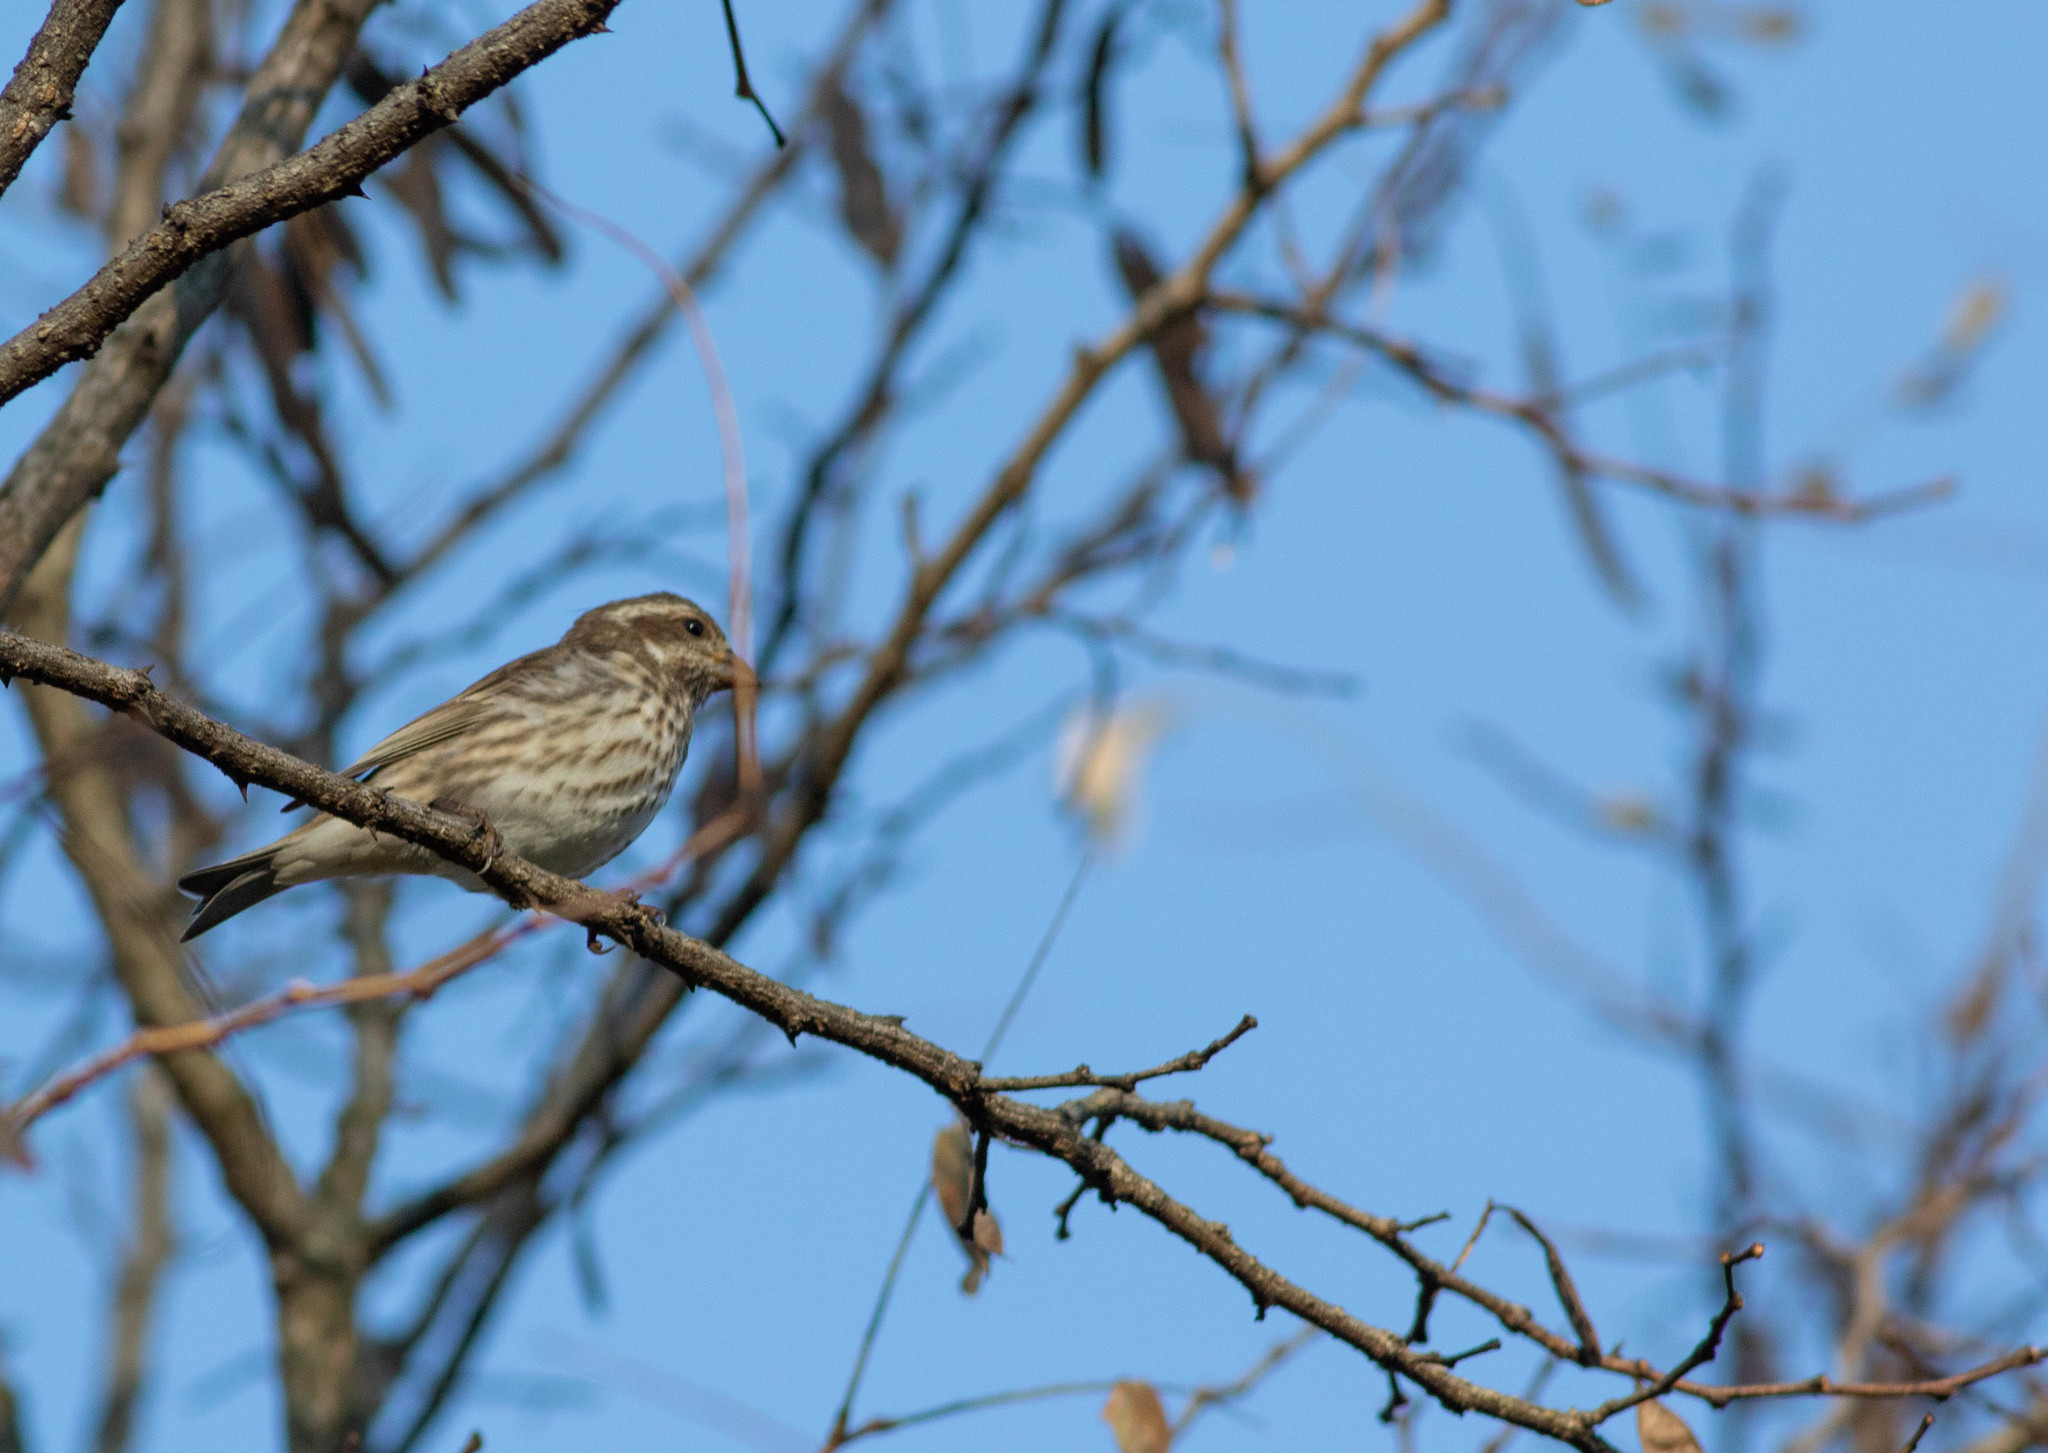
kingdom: Animalia
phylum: Chordata
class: Aves
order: Passeriformes
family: Fringillidae
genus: Haemorhous
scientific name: Haemorhous purpureus
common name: Purple finch
